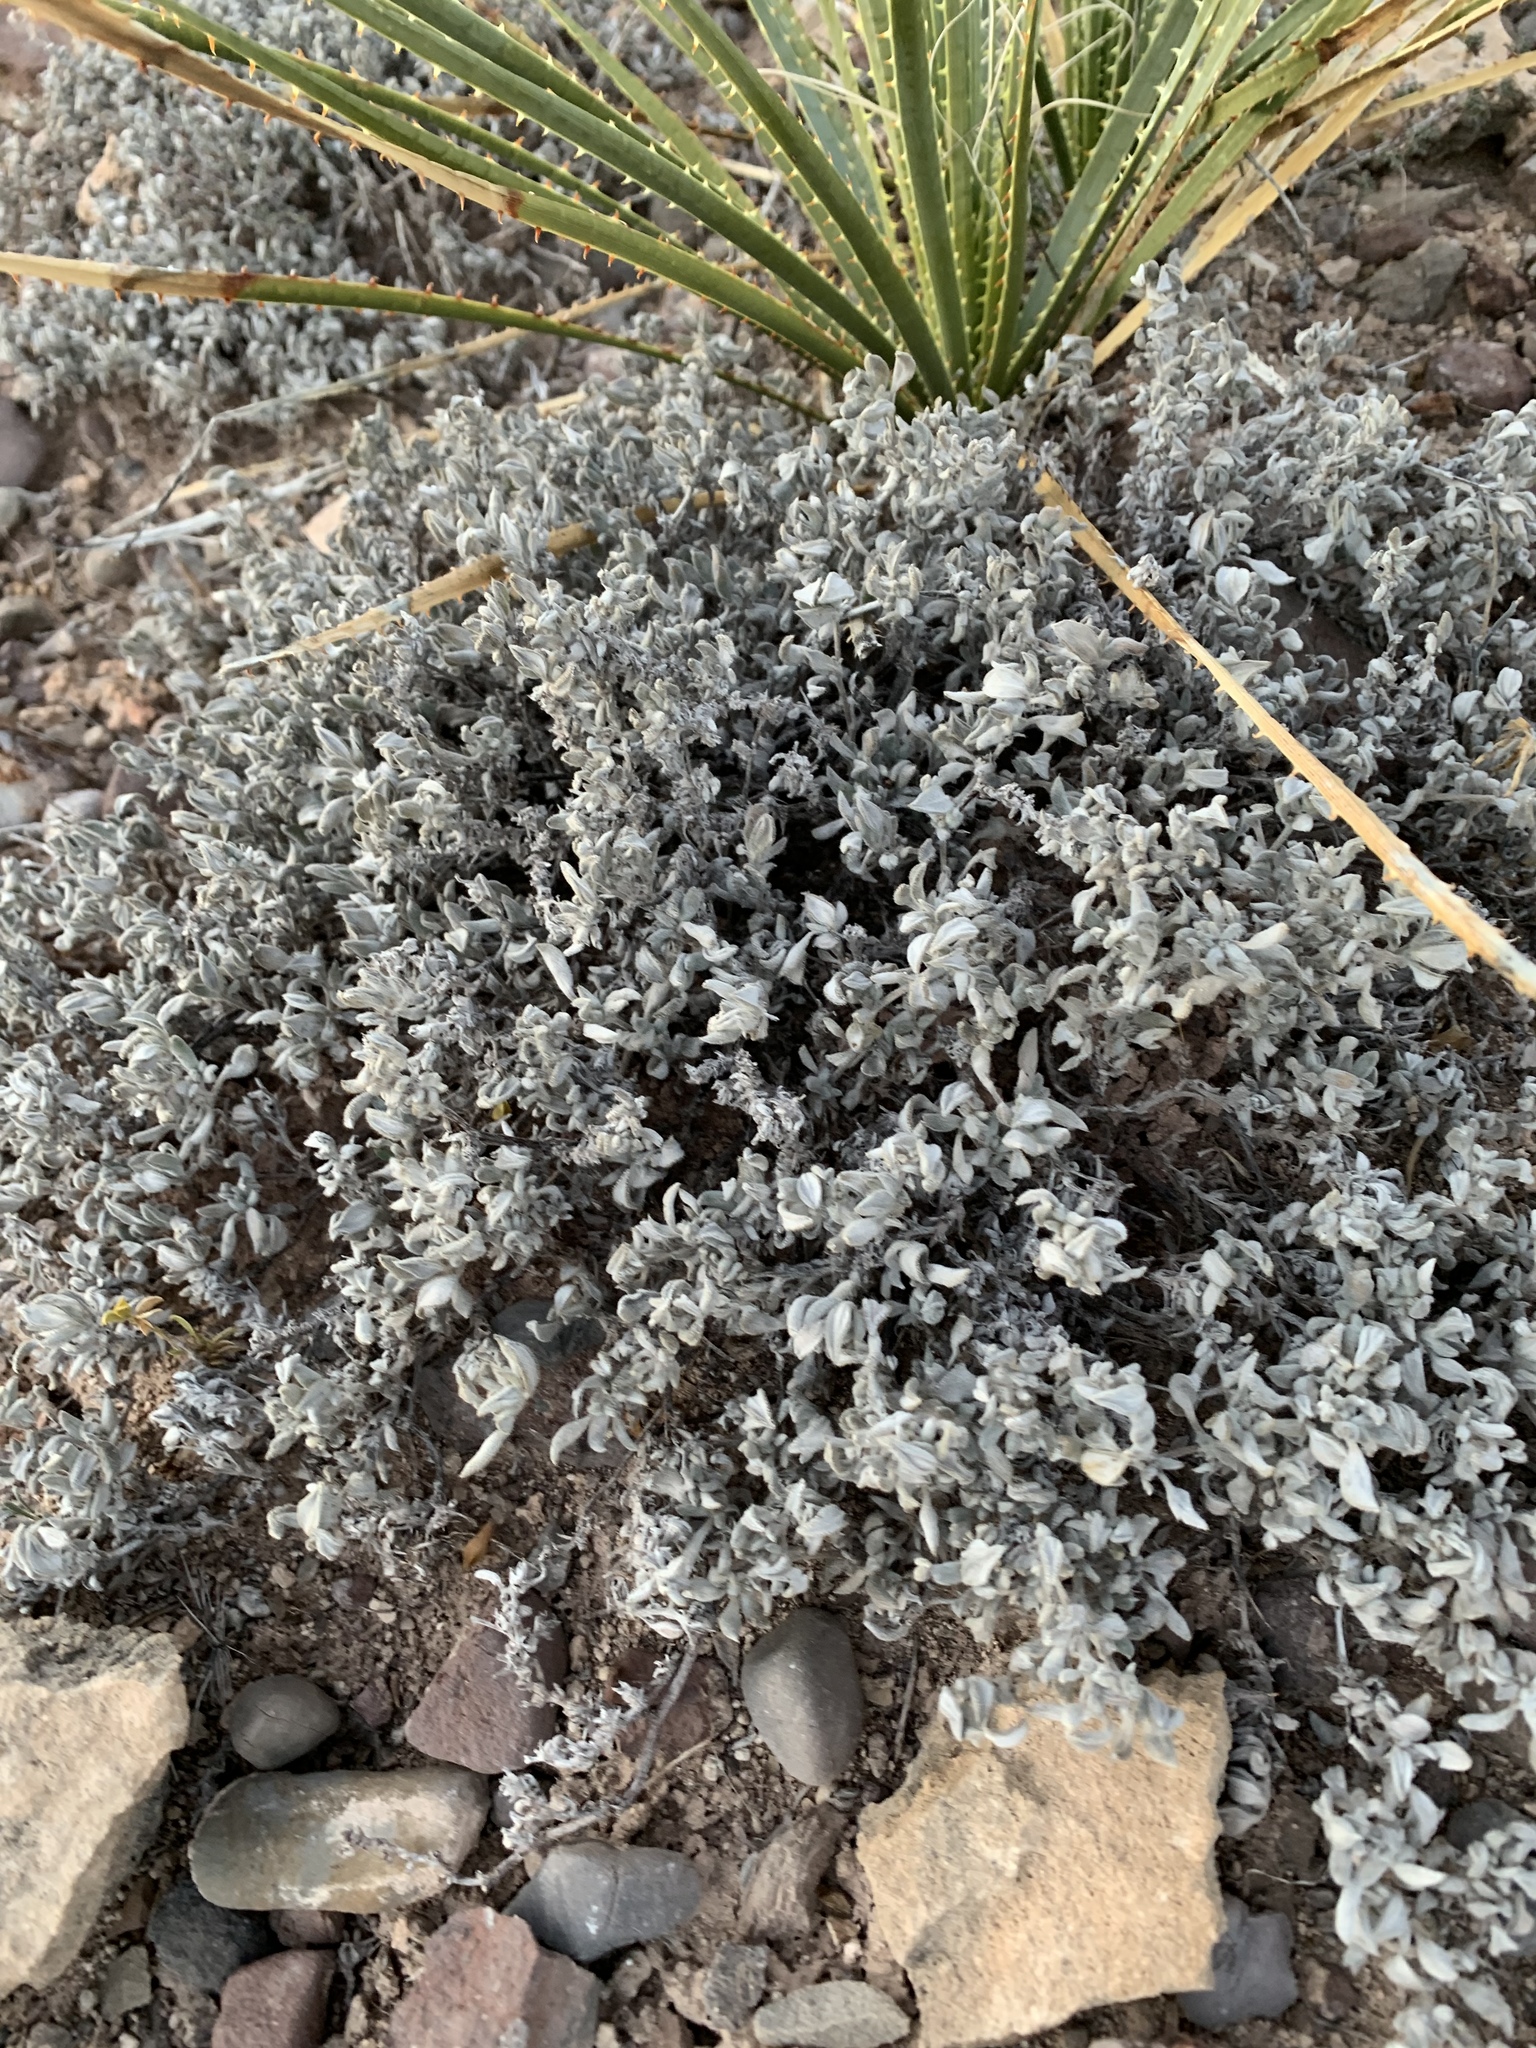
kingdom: Plantae
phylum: Tracheophyta
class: Magnoliopsida
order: Boraginales
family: Ehretiaceae
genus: Tiquilia
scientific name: Tiquilia canescens
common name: Hairy tiquilia
